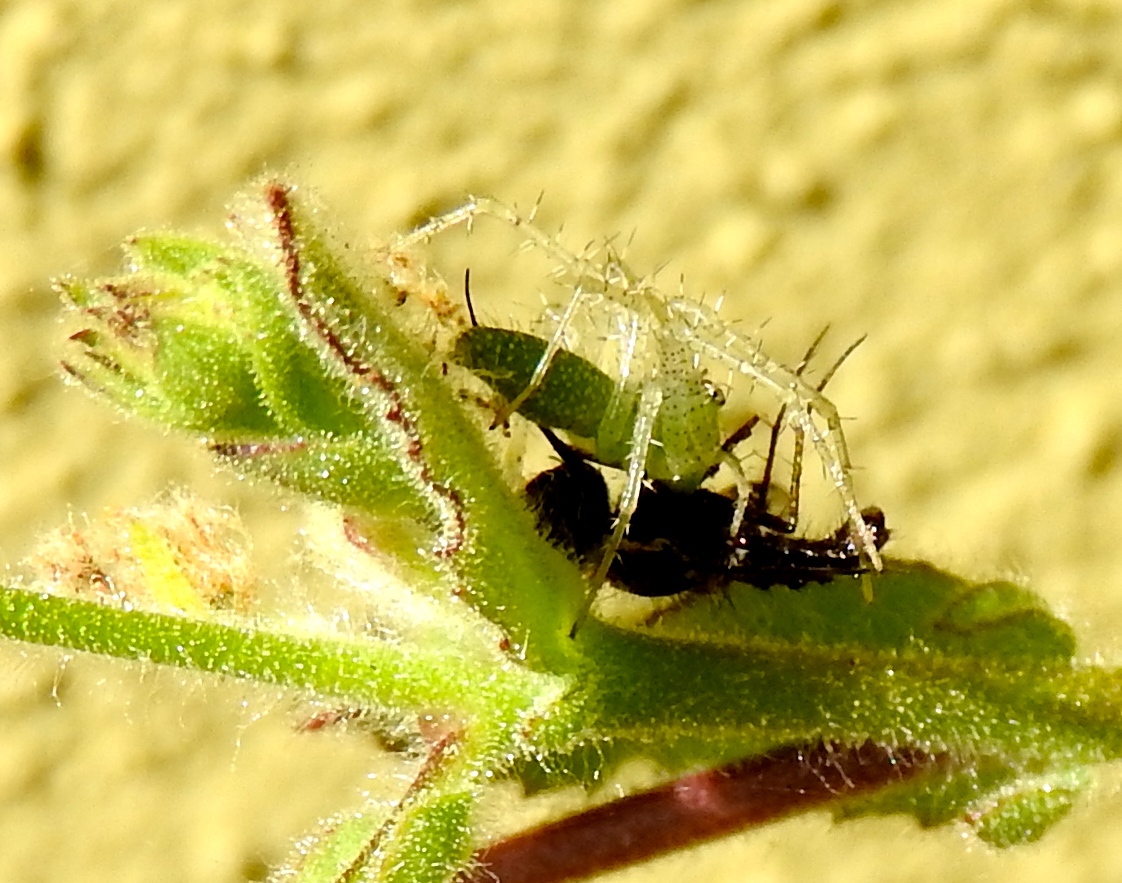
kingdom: Animalia
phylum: Arthropoda
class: Arachnida
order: Araneae
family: Oxyopidae
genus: Peucetia
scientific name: Peucetia
